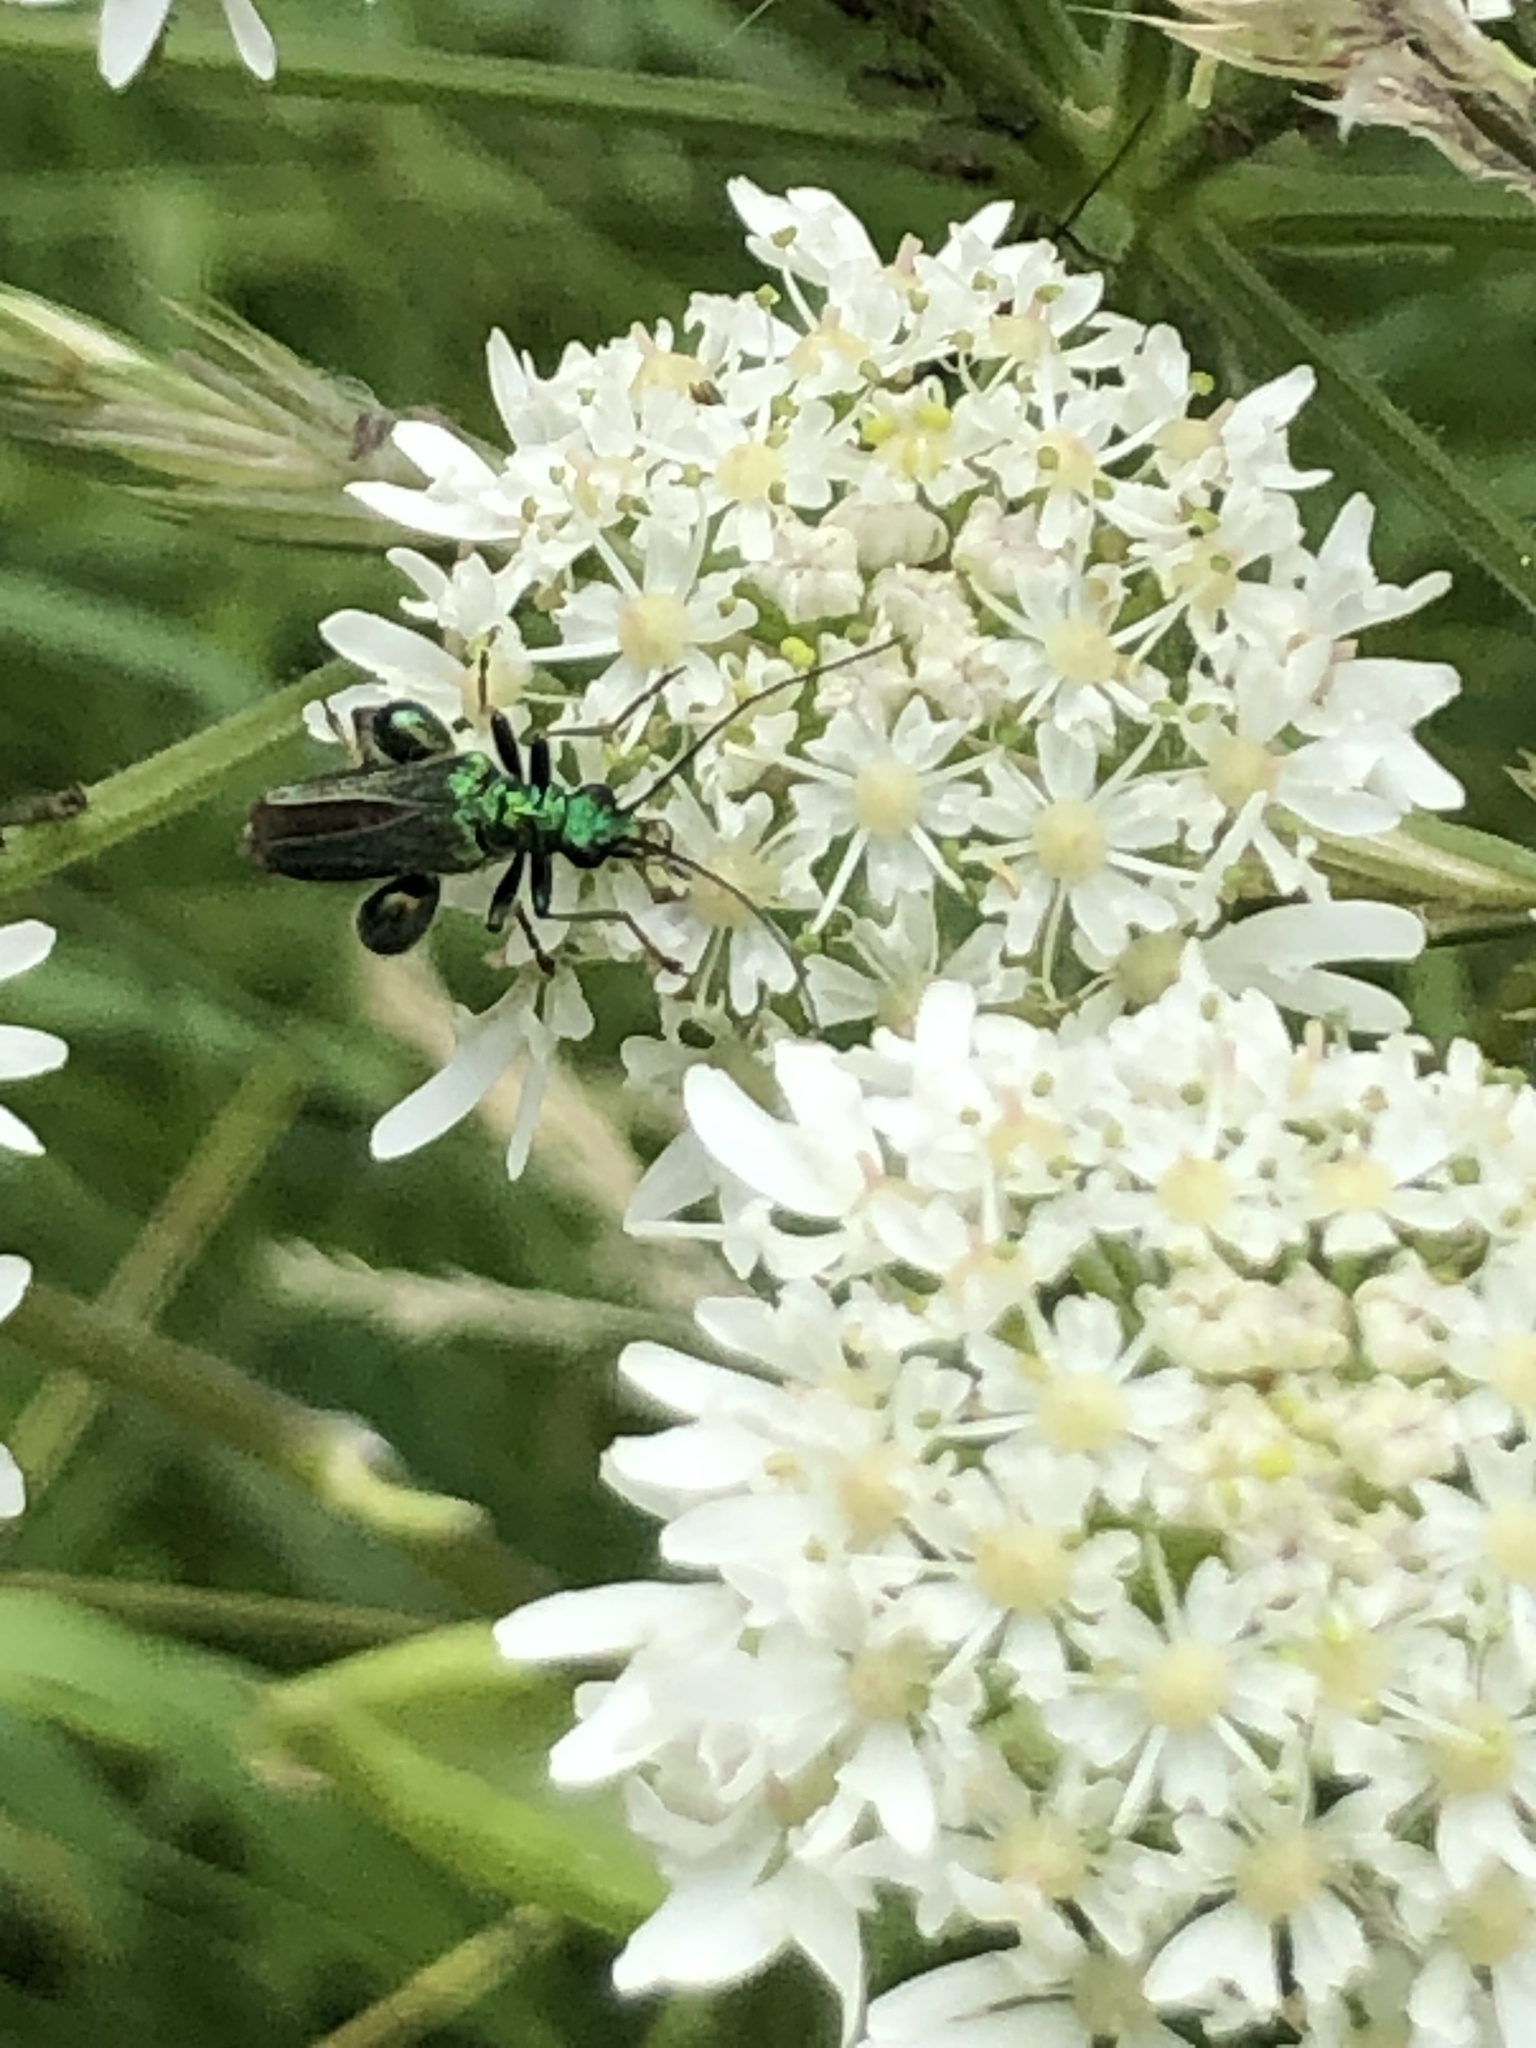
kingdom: Animalia
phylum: Arthropoda
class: Insecta
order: Coleoptera
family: Oedemeridae
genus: Oedemera
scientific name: Oedemera nobilis
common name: Swollen-thighed beetle
